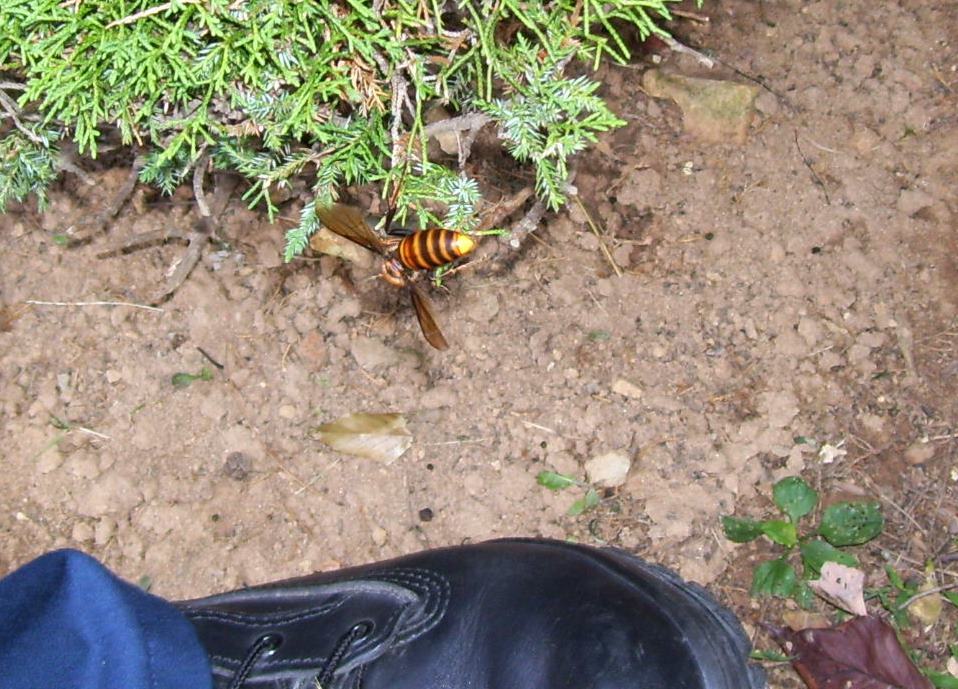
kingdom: Animalia
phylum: Arthropoda
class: Insecta
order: Hymenoptera
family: Vespidae
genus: Vespa
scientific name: Vespa mandarinia
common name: Asian giant hornet
